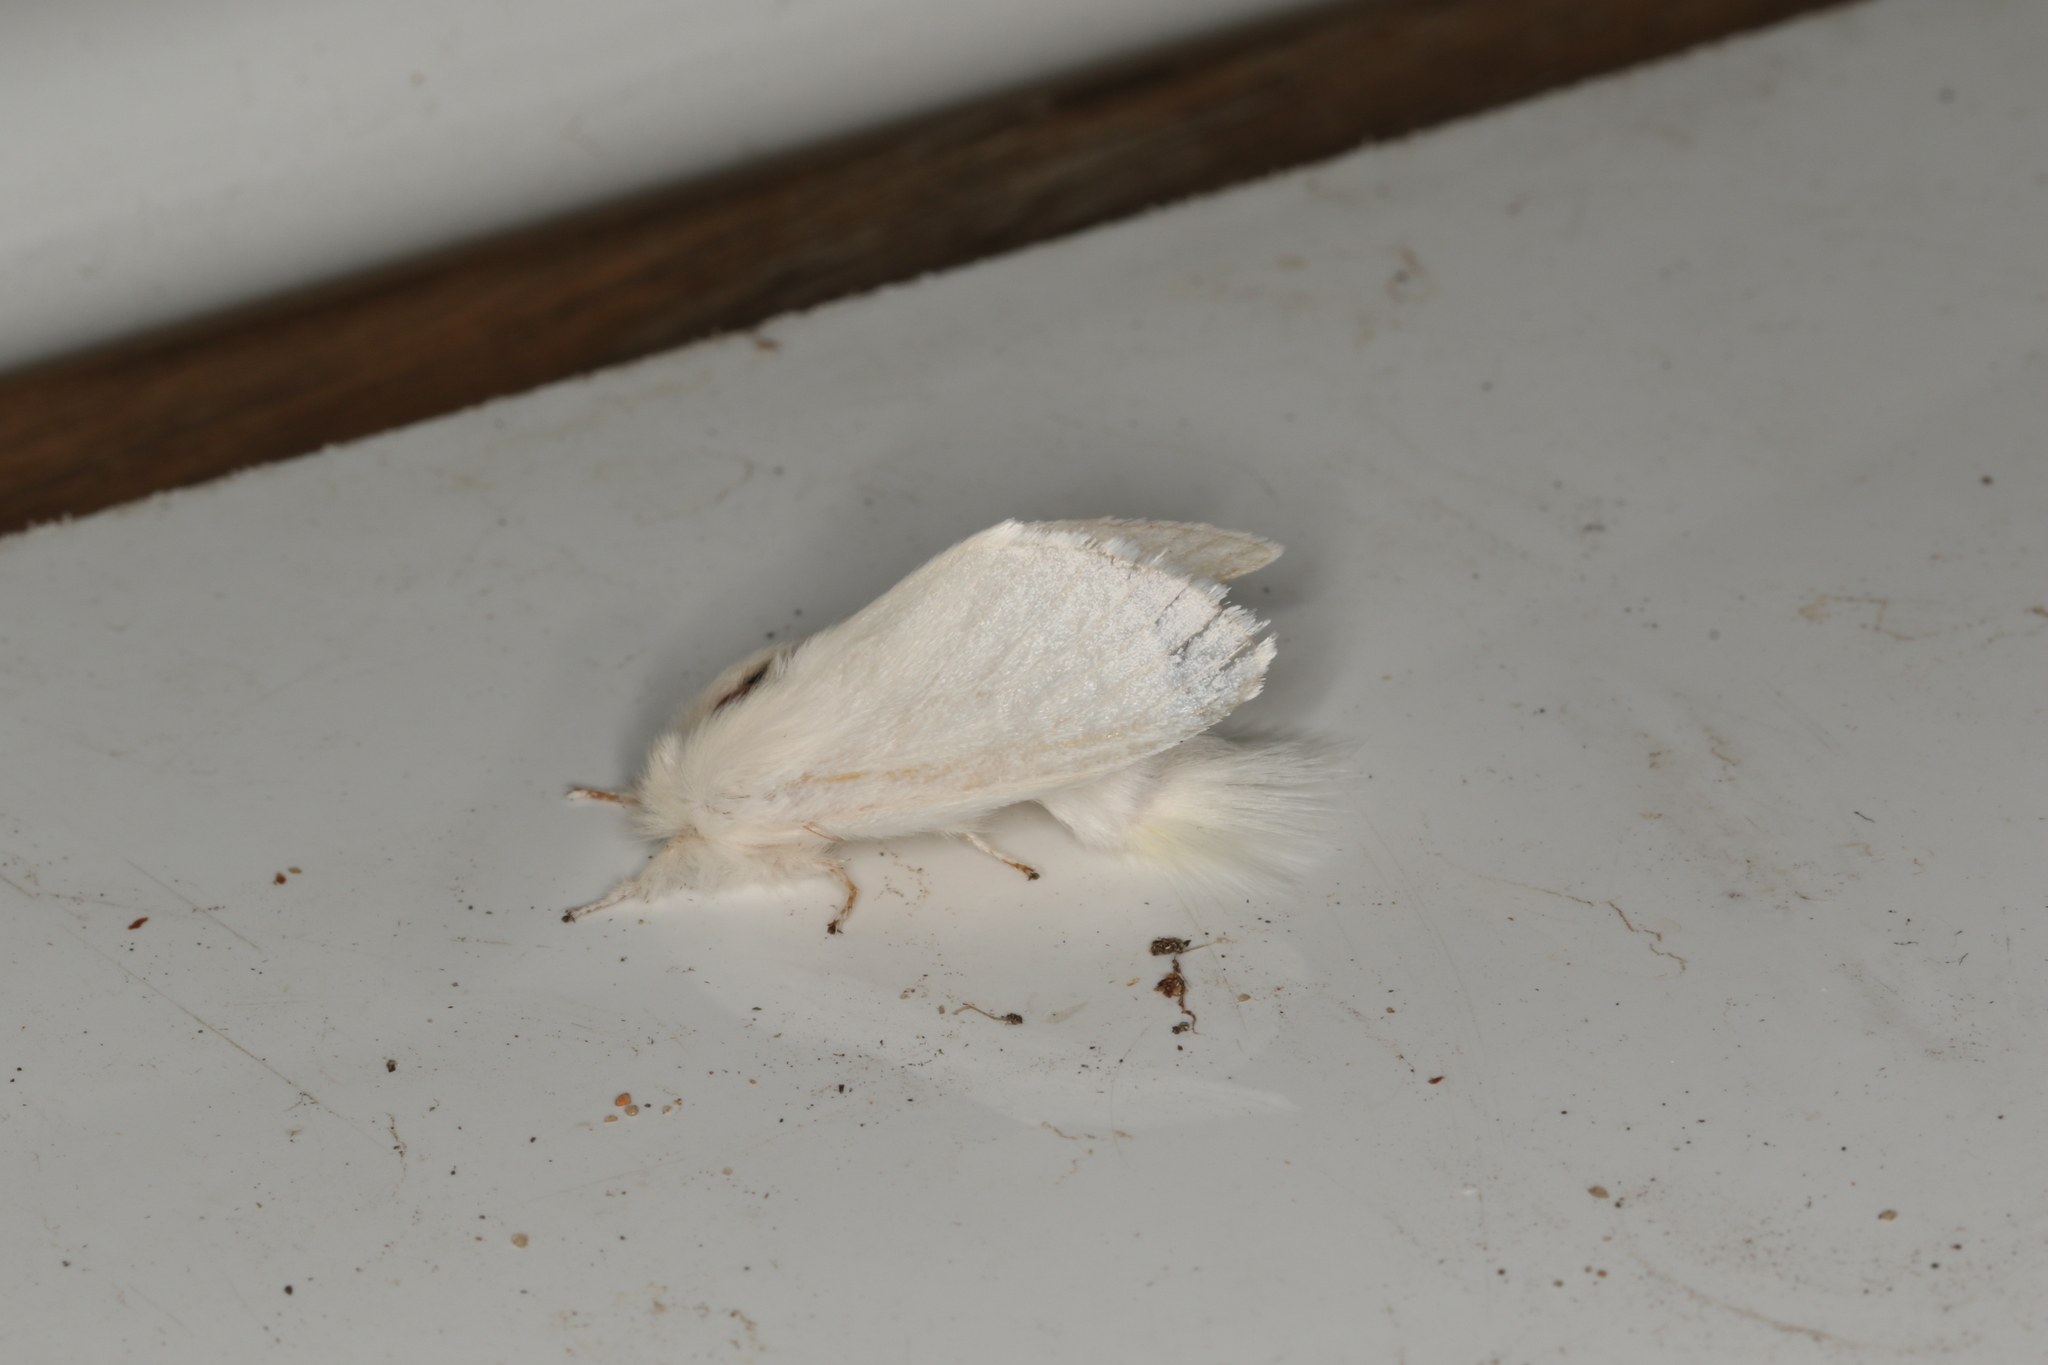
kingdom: Animalia
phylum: Arthropoda
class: Insecta
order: Lepidoptera
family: Notodontidae
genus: Trichiocercus
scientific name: Trichiocercus sparshalli
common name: Long-tailed satin
